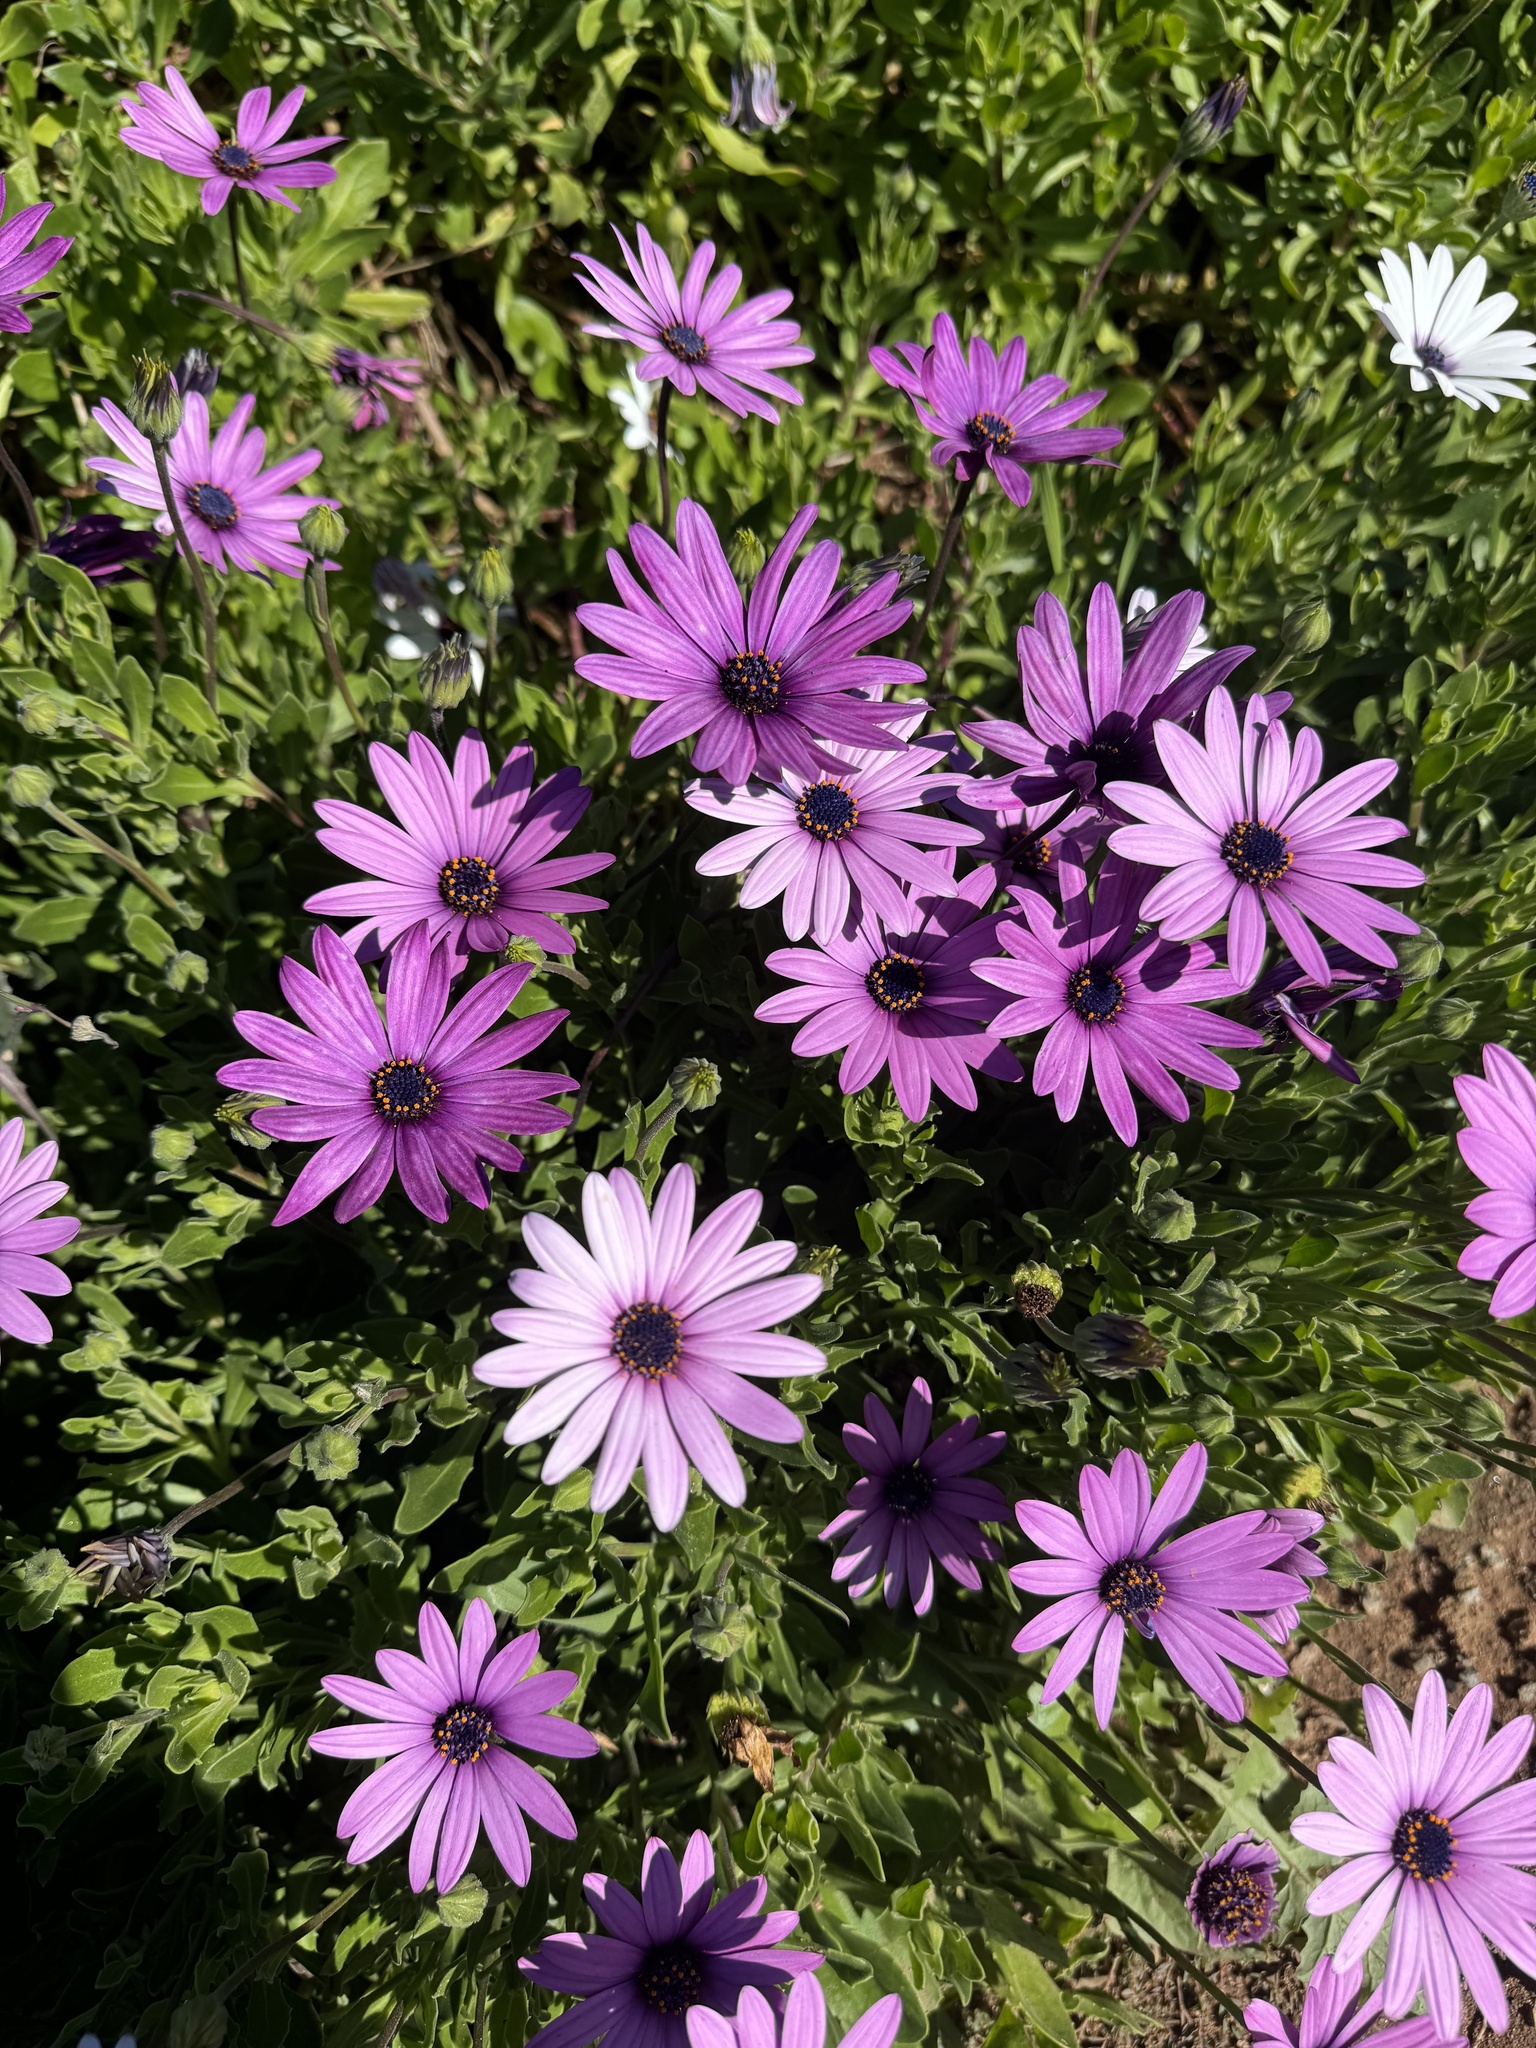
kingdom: Plantae
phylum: Tracheophyta
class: Magnoliopsida
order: Asterales
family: Asteraceae
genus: Dimorphotheca
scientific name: Dimorphotheca jucunda
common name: Osteospermum
